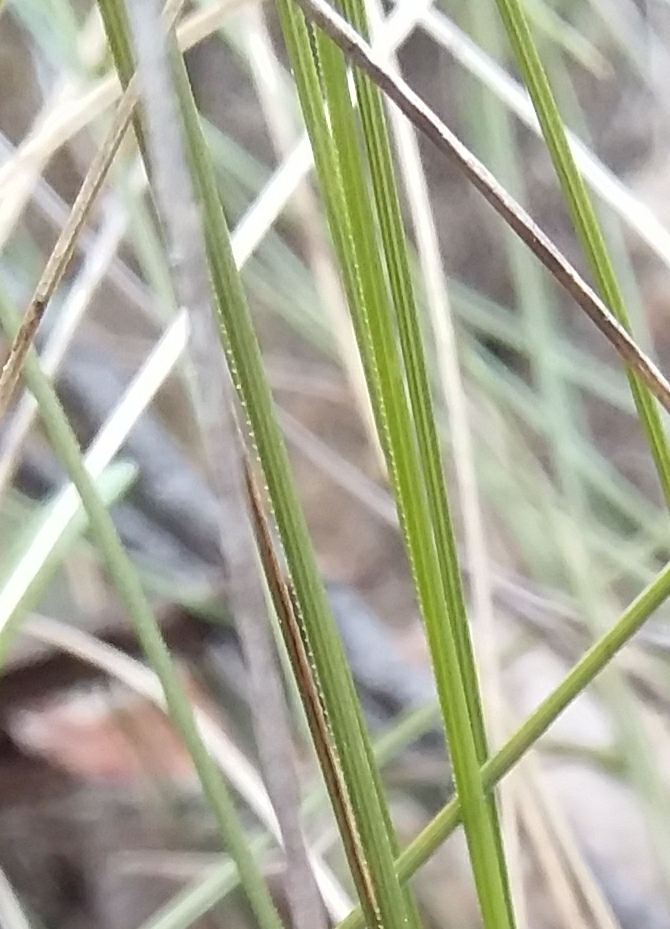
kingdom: Plantae
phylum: Tracheophyta
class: Liliopsida
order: Asparagales
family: Asparagaceae
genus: Lomandra
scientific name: Lomandra fibrata
